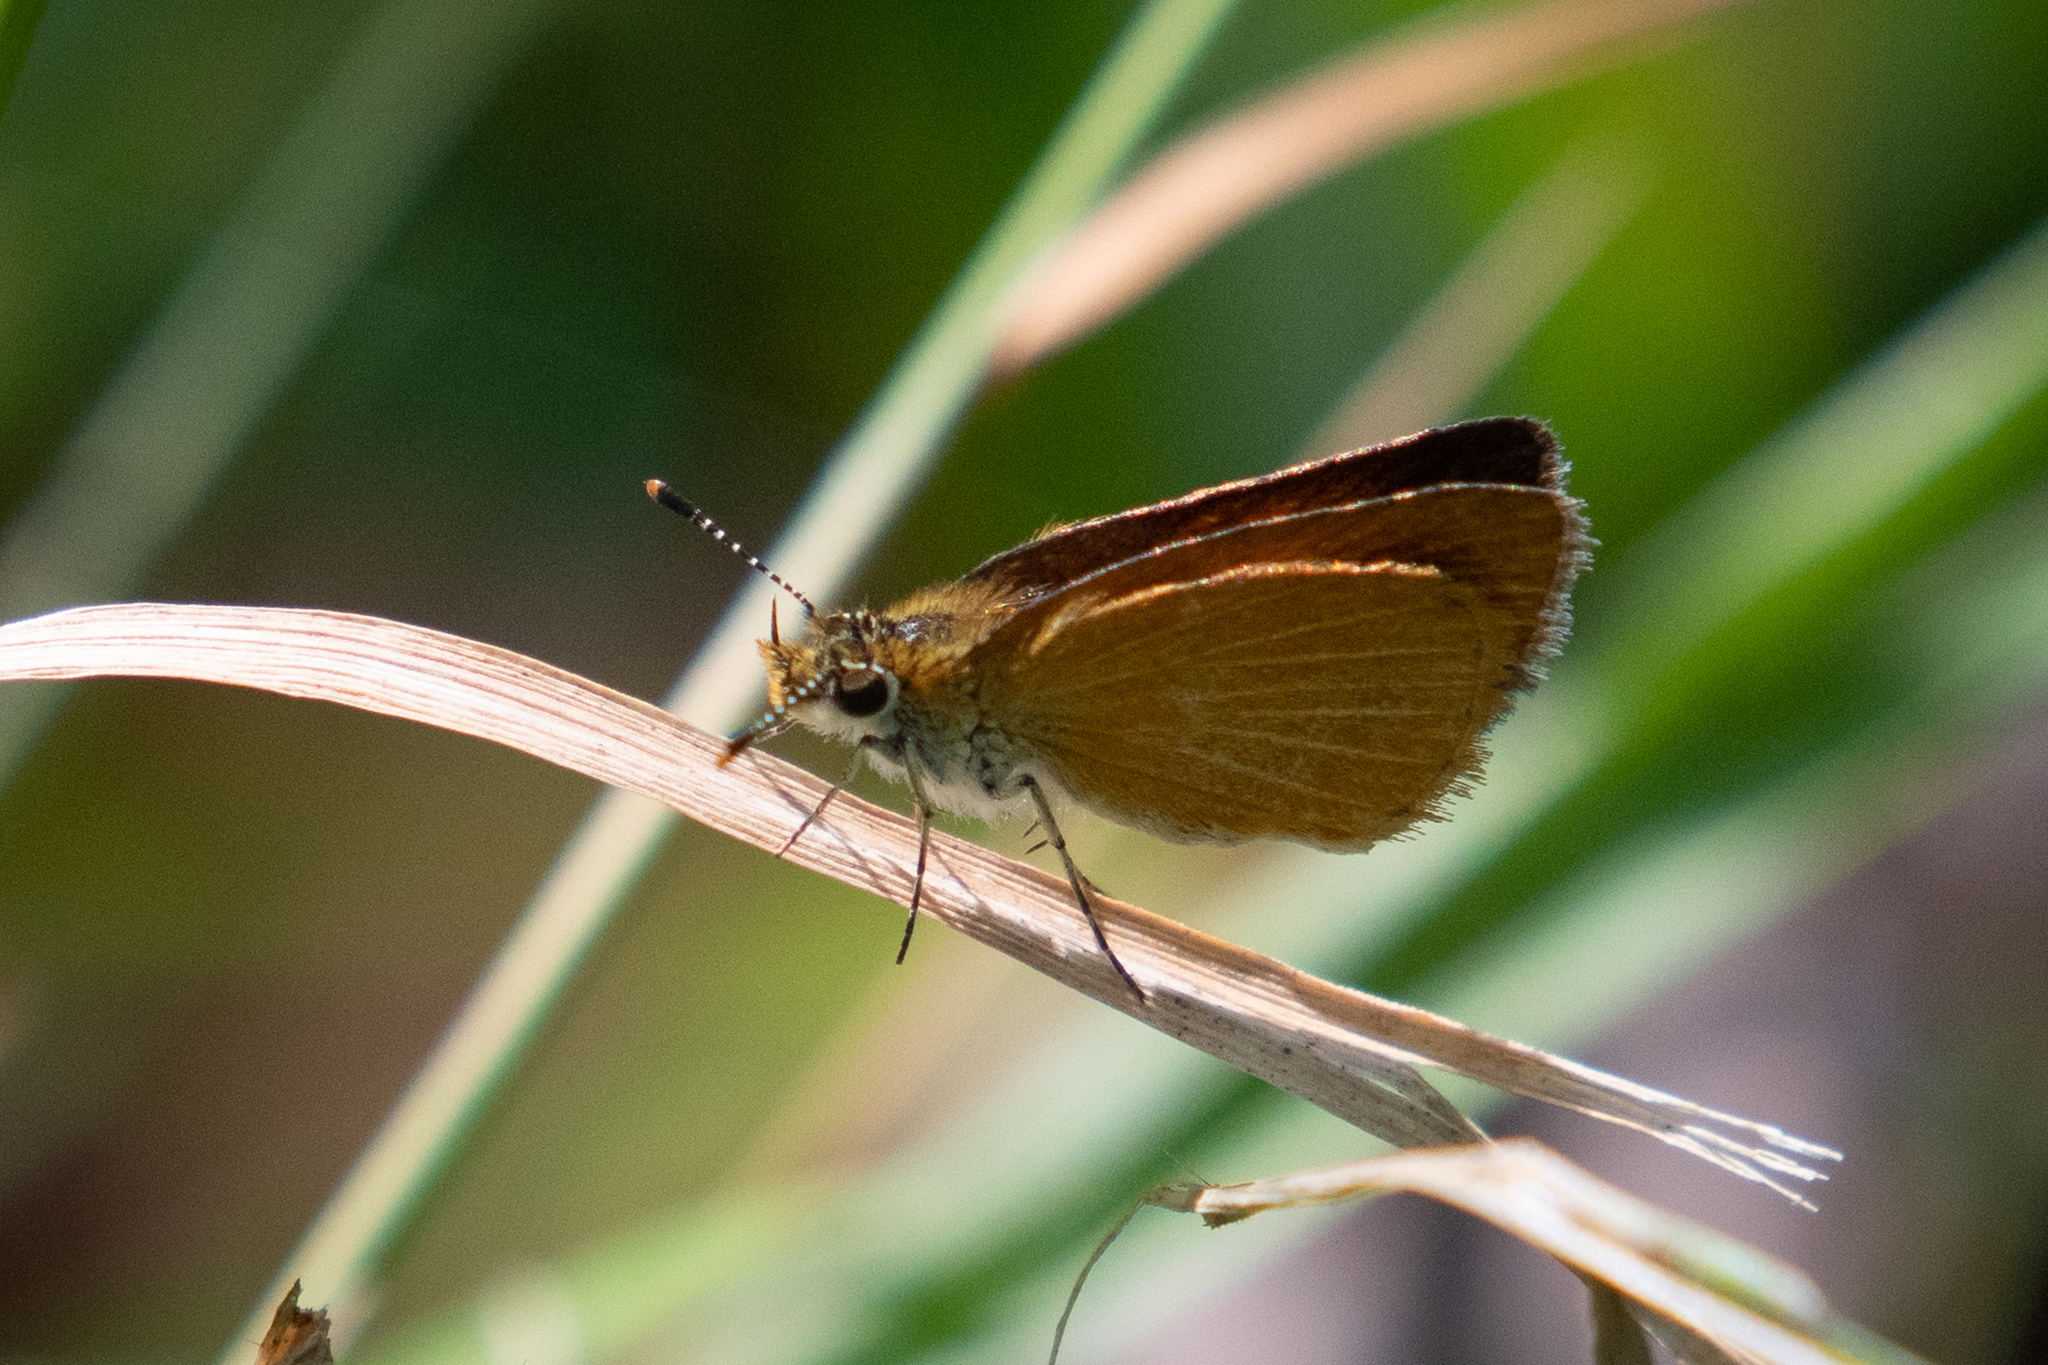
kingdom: Animalia
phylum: Arthropoda
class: Insecta
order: Lepidoptera
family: Hesperiidae
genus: Ancyloxypha
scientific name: Ancyloxypha numitor
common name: Least skipper
